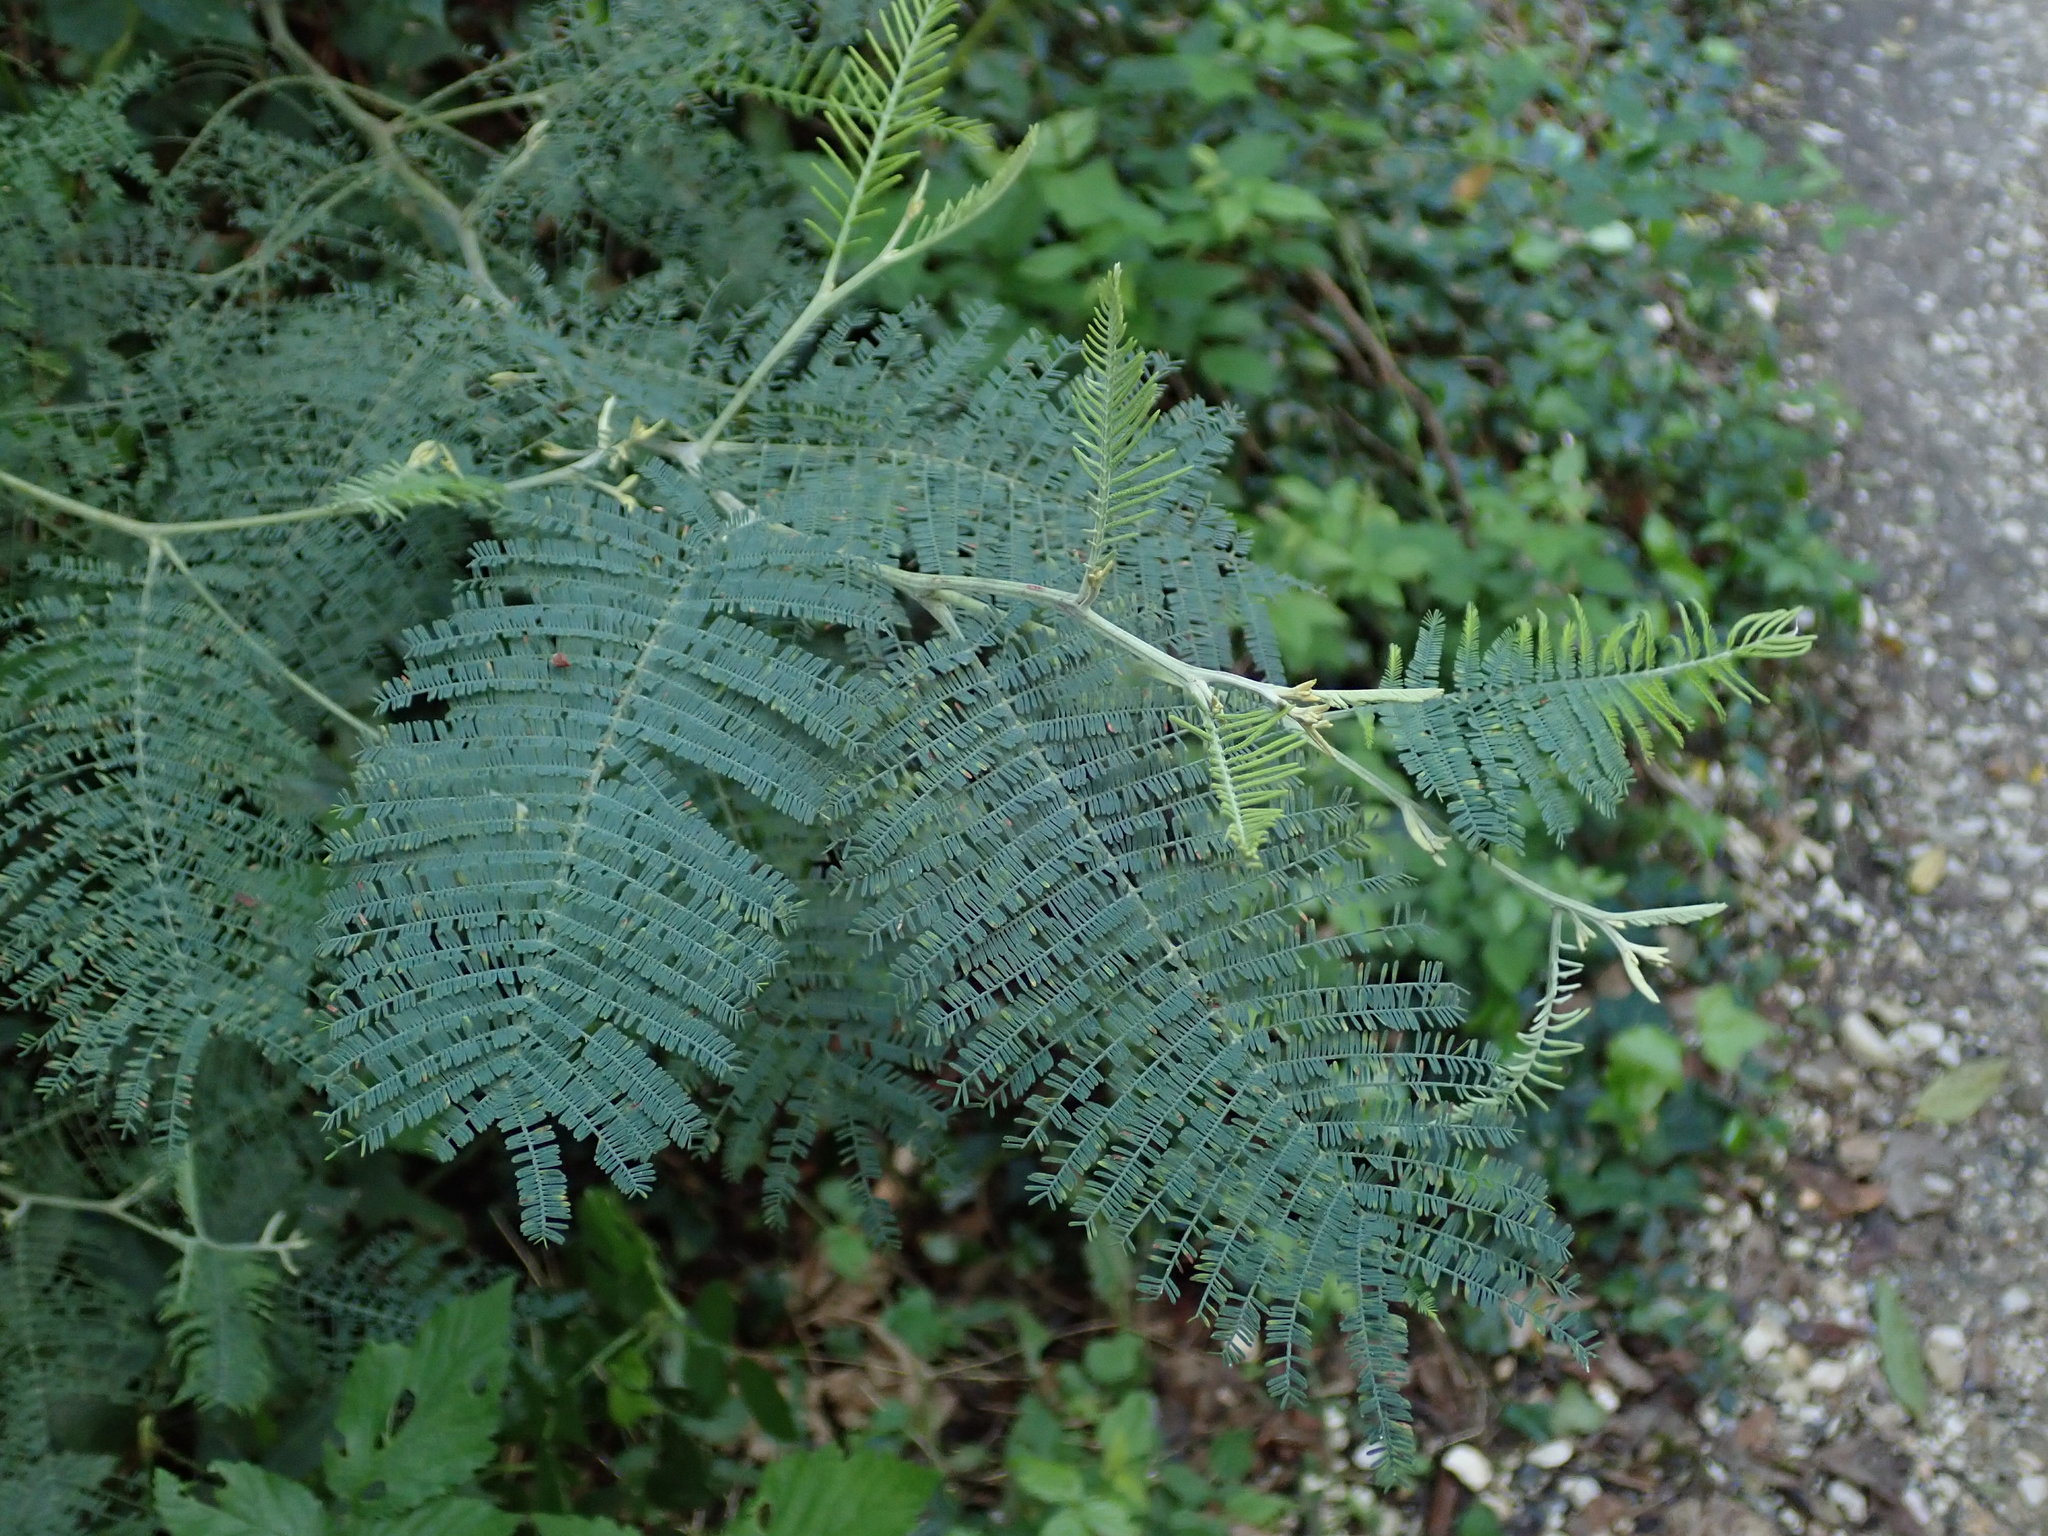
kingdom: Plantae
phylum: Tracheophyta
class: Magnoliopsida
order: Fabales
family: Fabaceae
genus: Acacia
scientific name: Acacia dealbata
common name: Silver wattle
